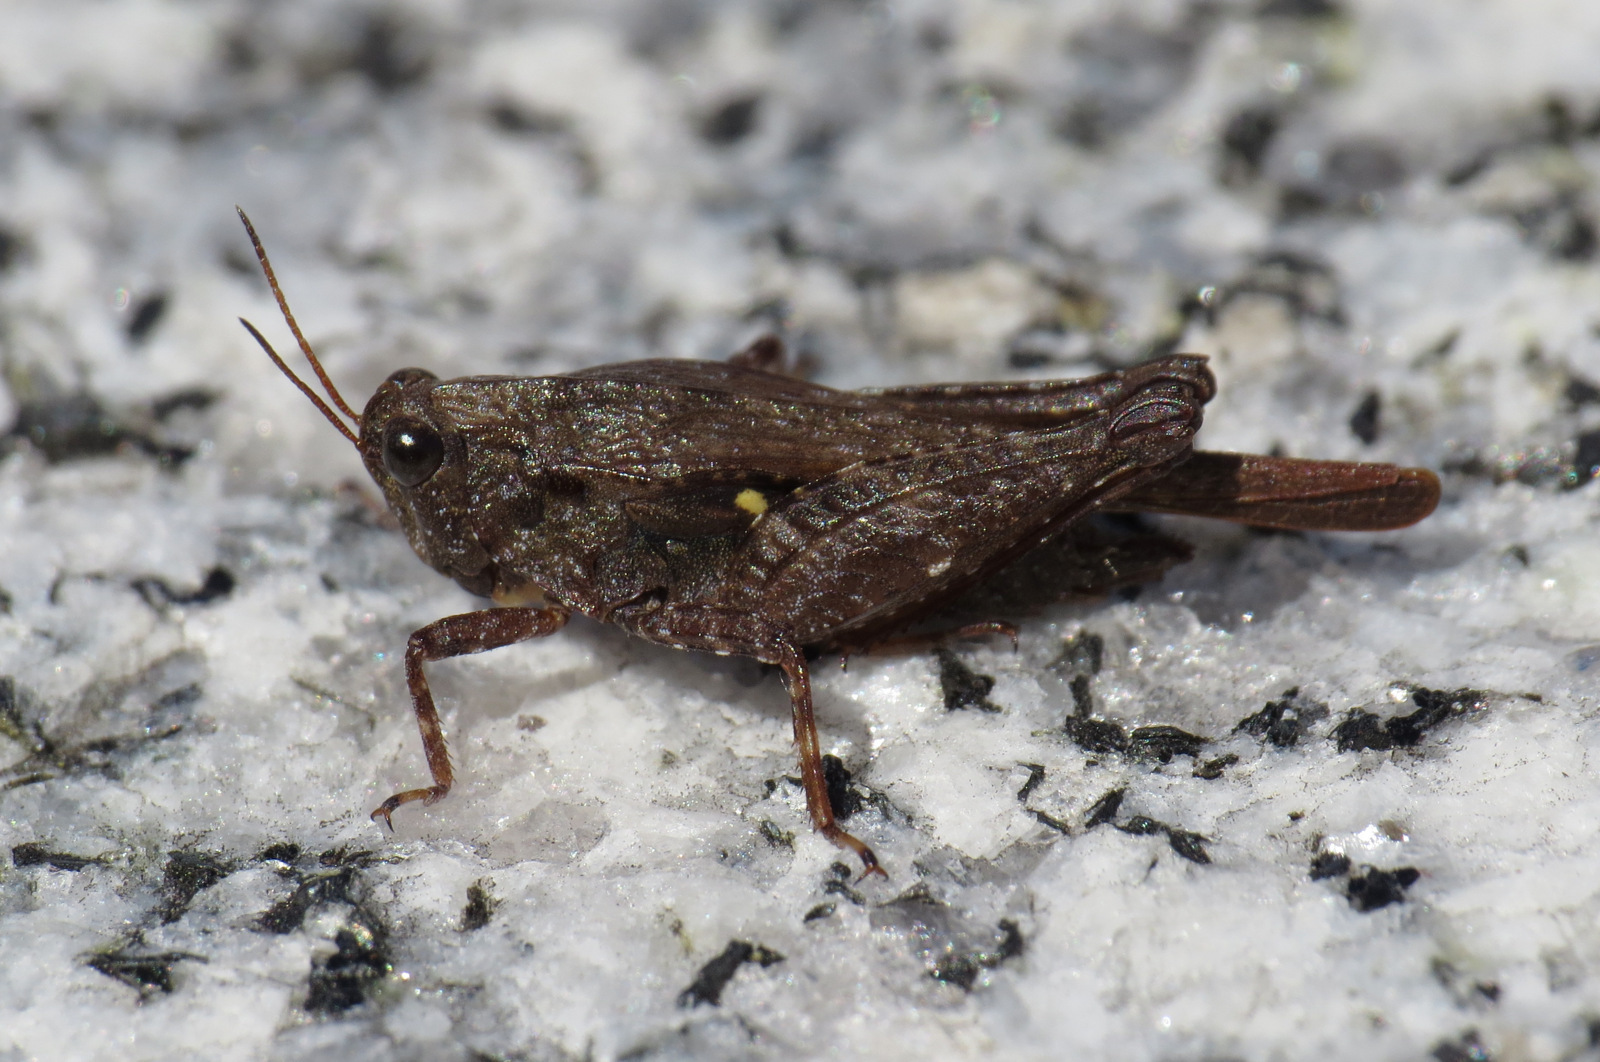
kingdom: Animalia
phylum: Arthropoda
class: Insecta
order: Orthoptera
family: Tetrigidae
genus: Tettigidea
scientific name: Tettigidea laterale
